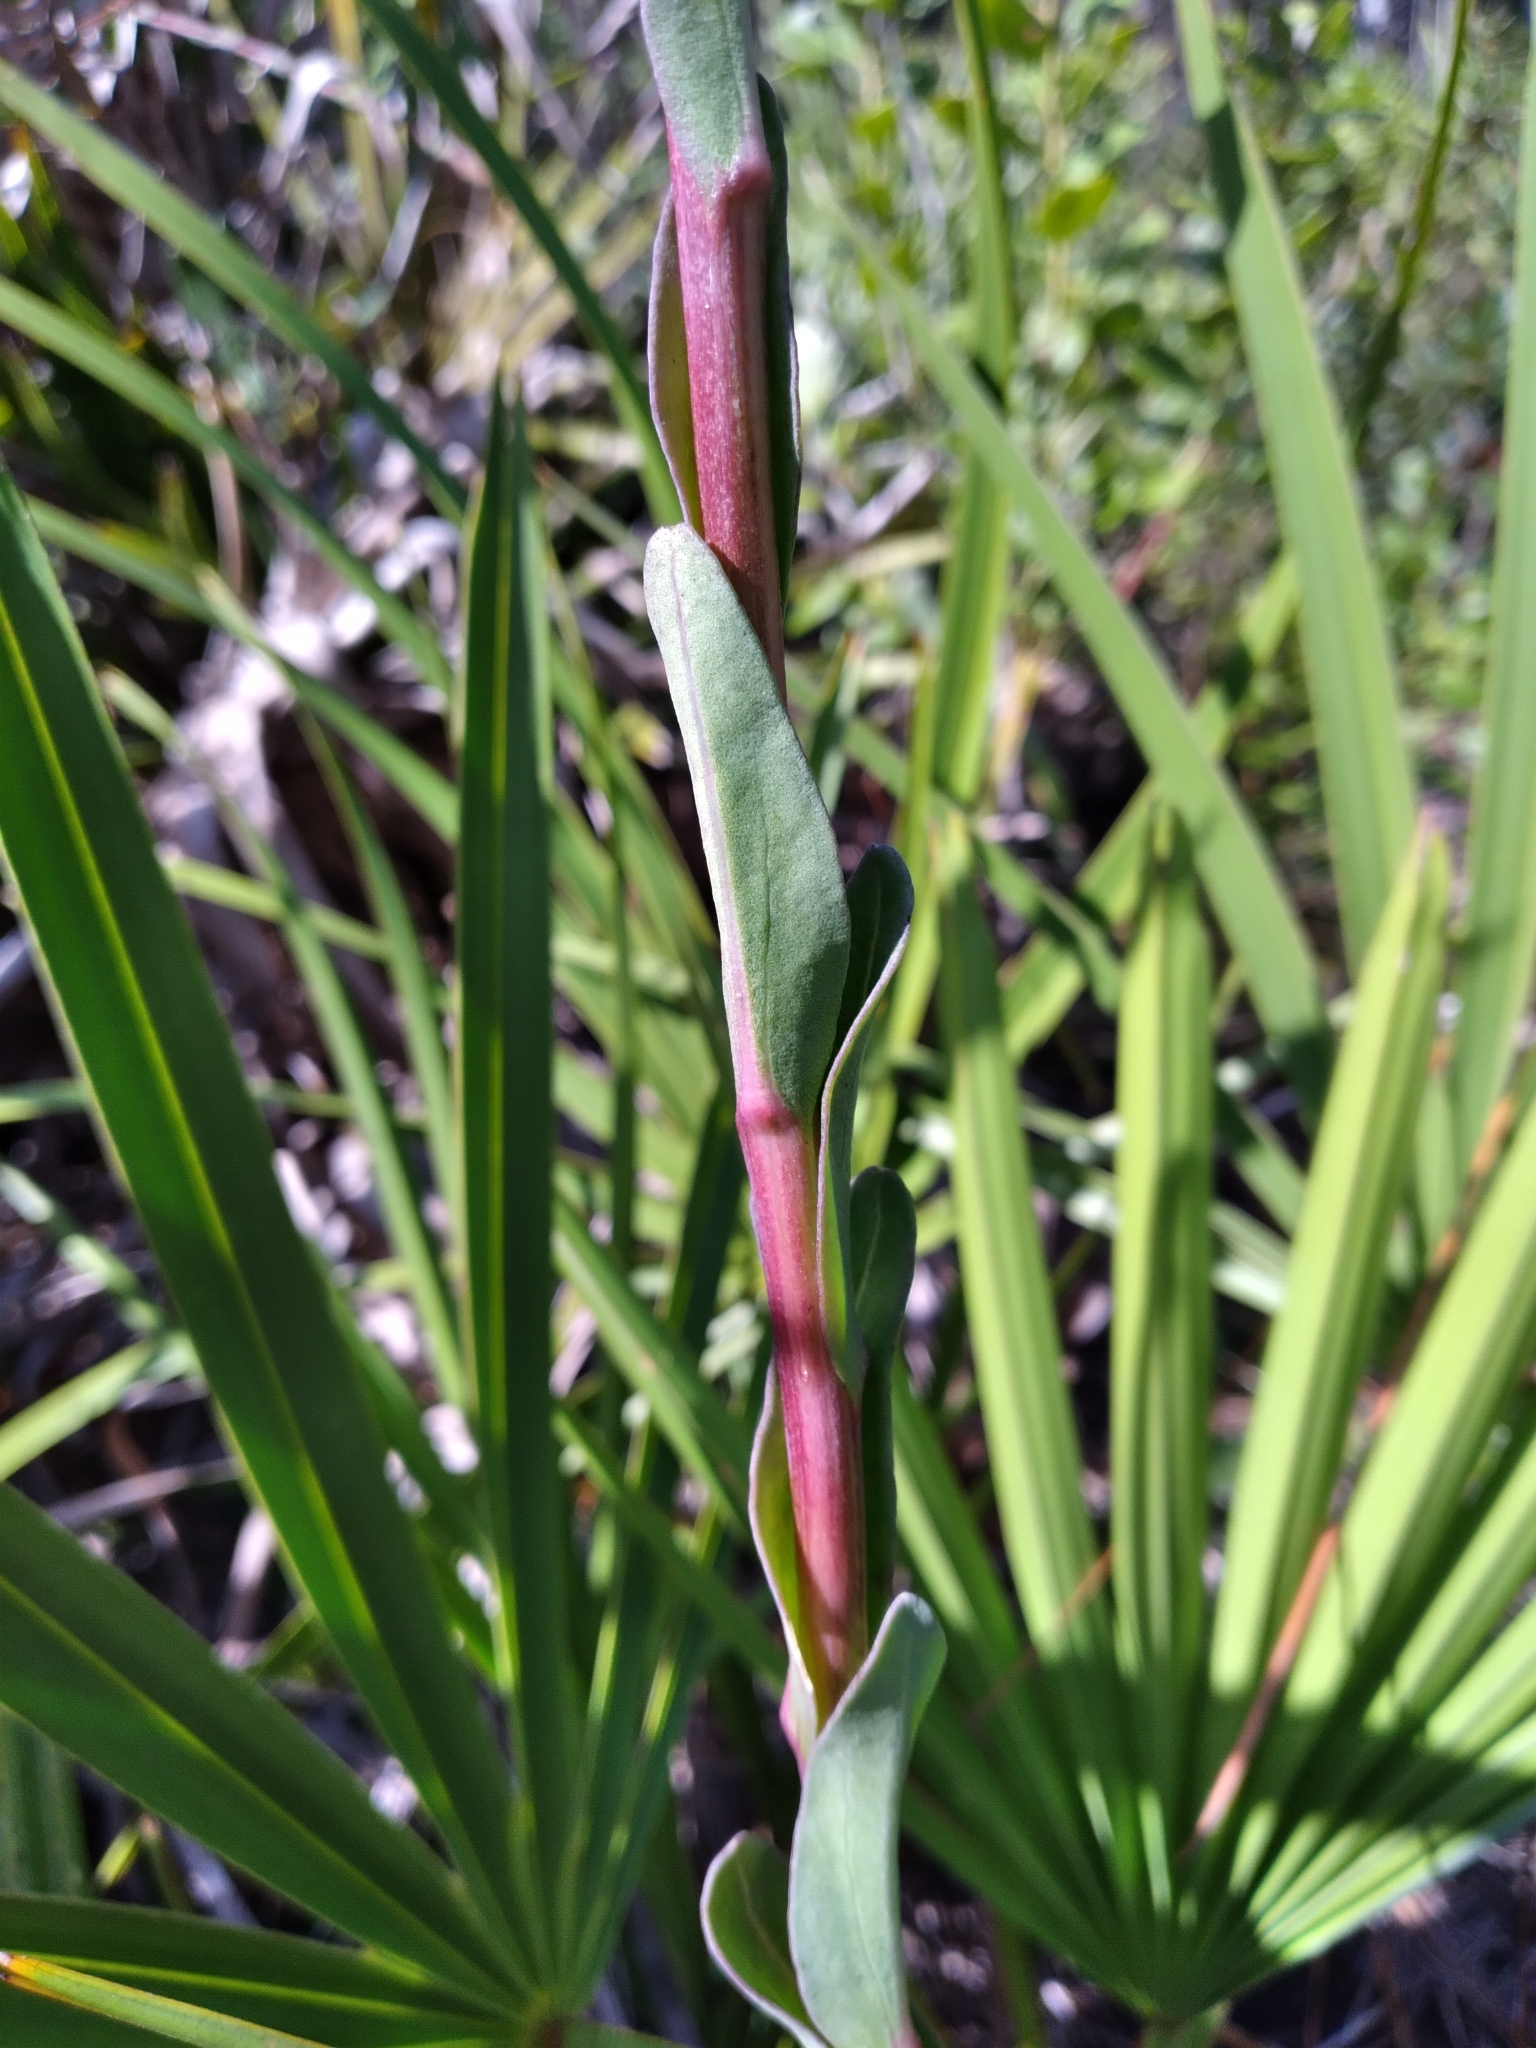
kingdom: Plantae
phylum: Tracheophyta
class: Magnoliopsida
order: Asterales
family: Asteraceae
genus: Carphephorus
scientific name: Carphephorus
